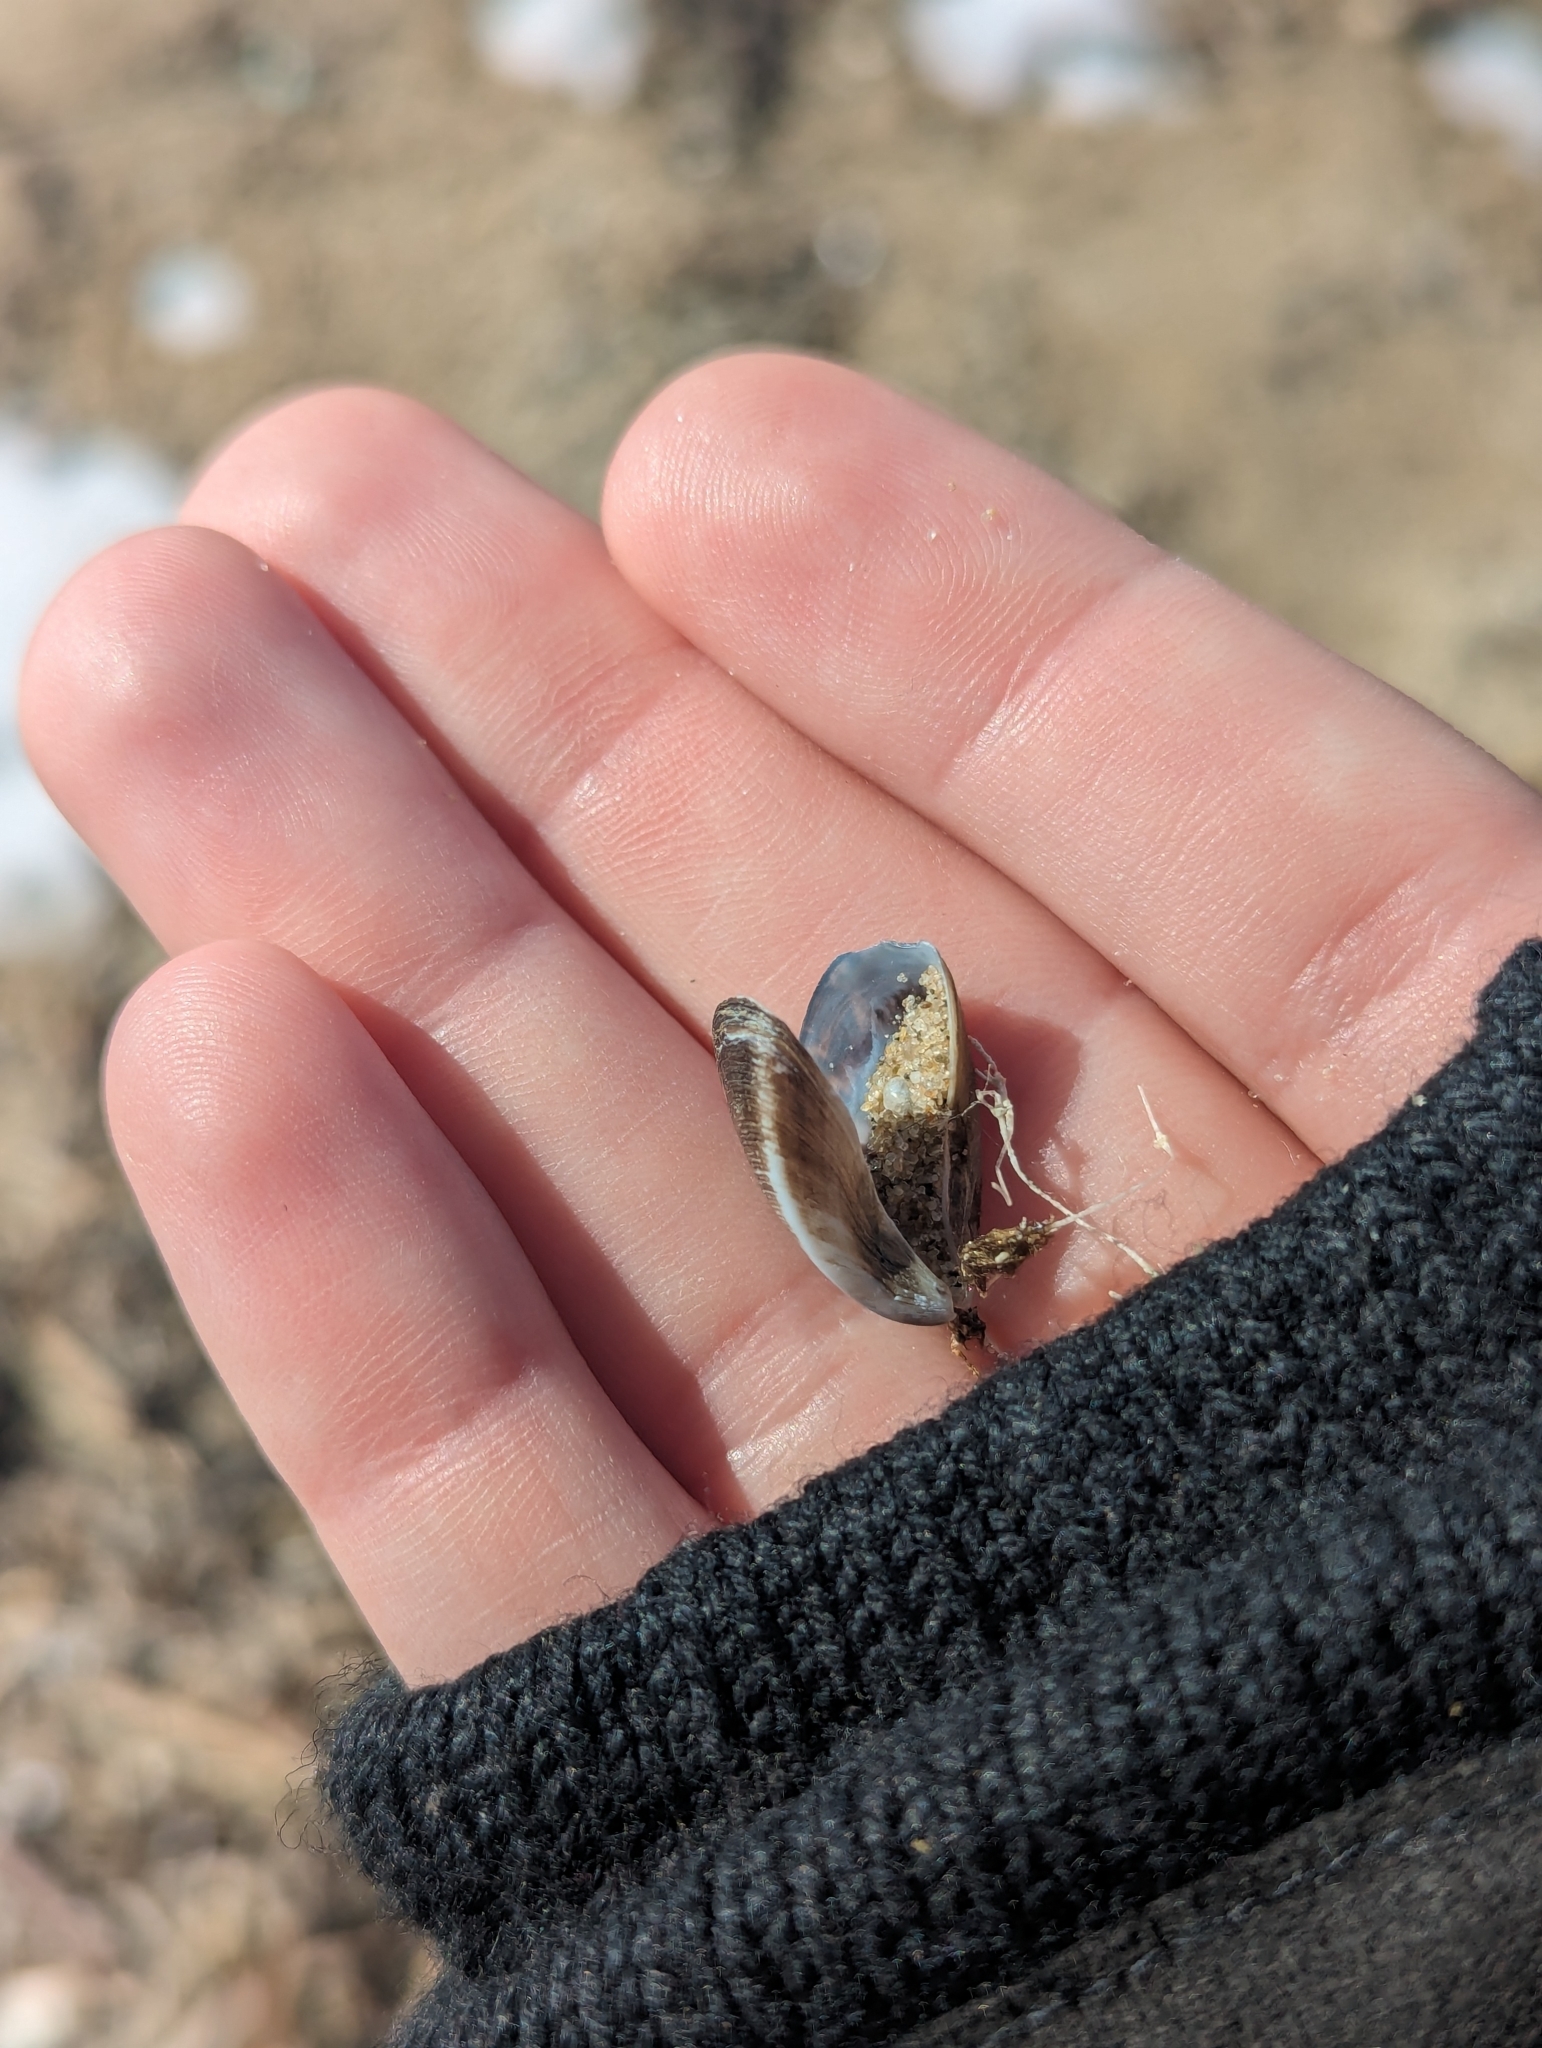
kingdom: Animalia
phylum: Mollusca
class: Bivalvia
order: Myida
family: Dreissenidae
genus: Dreissena
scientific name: Dreissena polymorpha
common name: Zebra mussel
